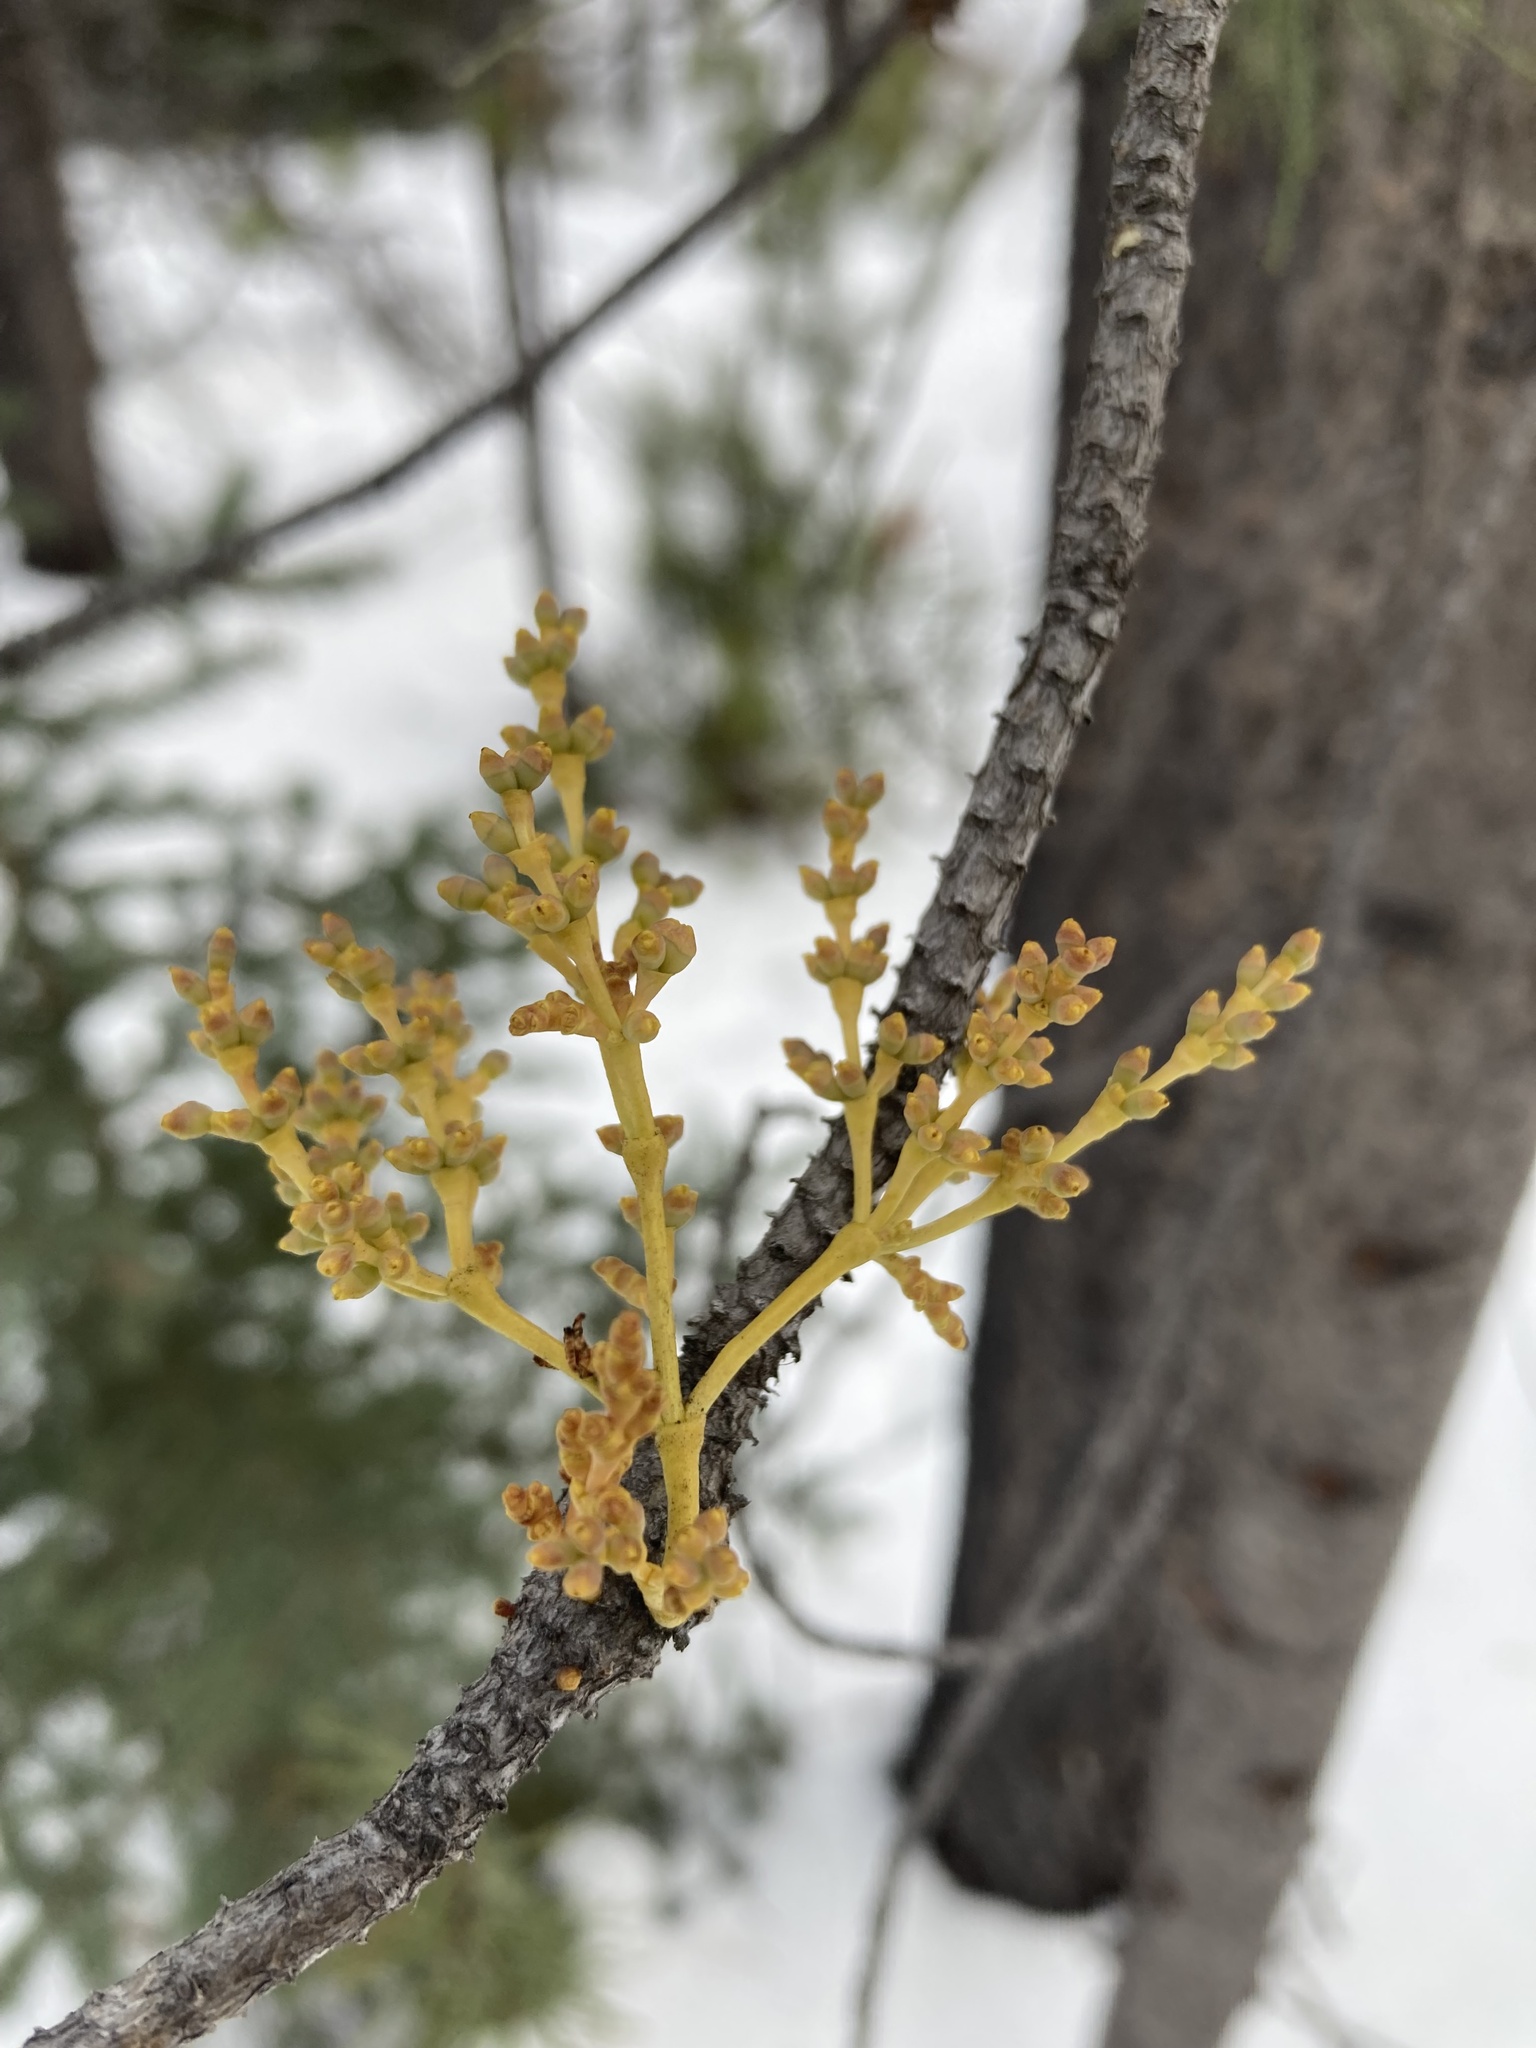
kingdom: Plantae
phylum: Tracheophyta
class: Magnoliopsida
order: Santalales
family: Viscaceae
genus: Arceuthobium
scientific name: Arceuthobium americanum
